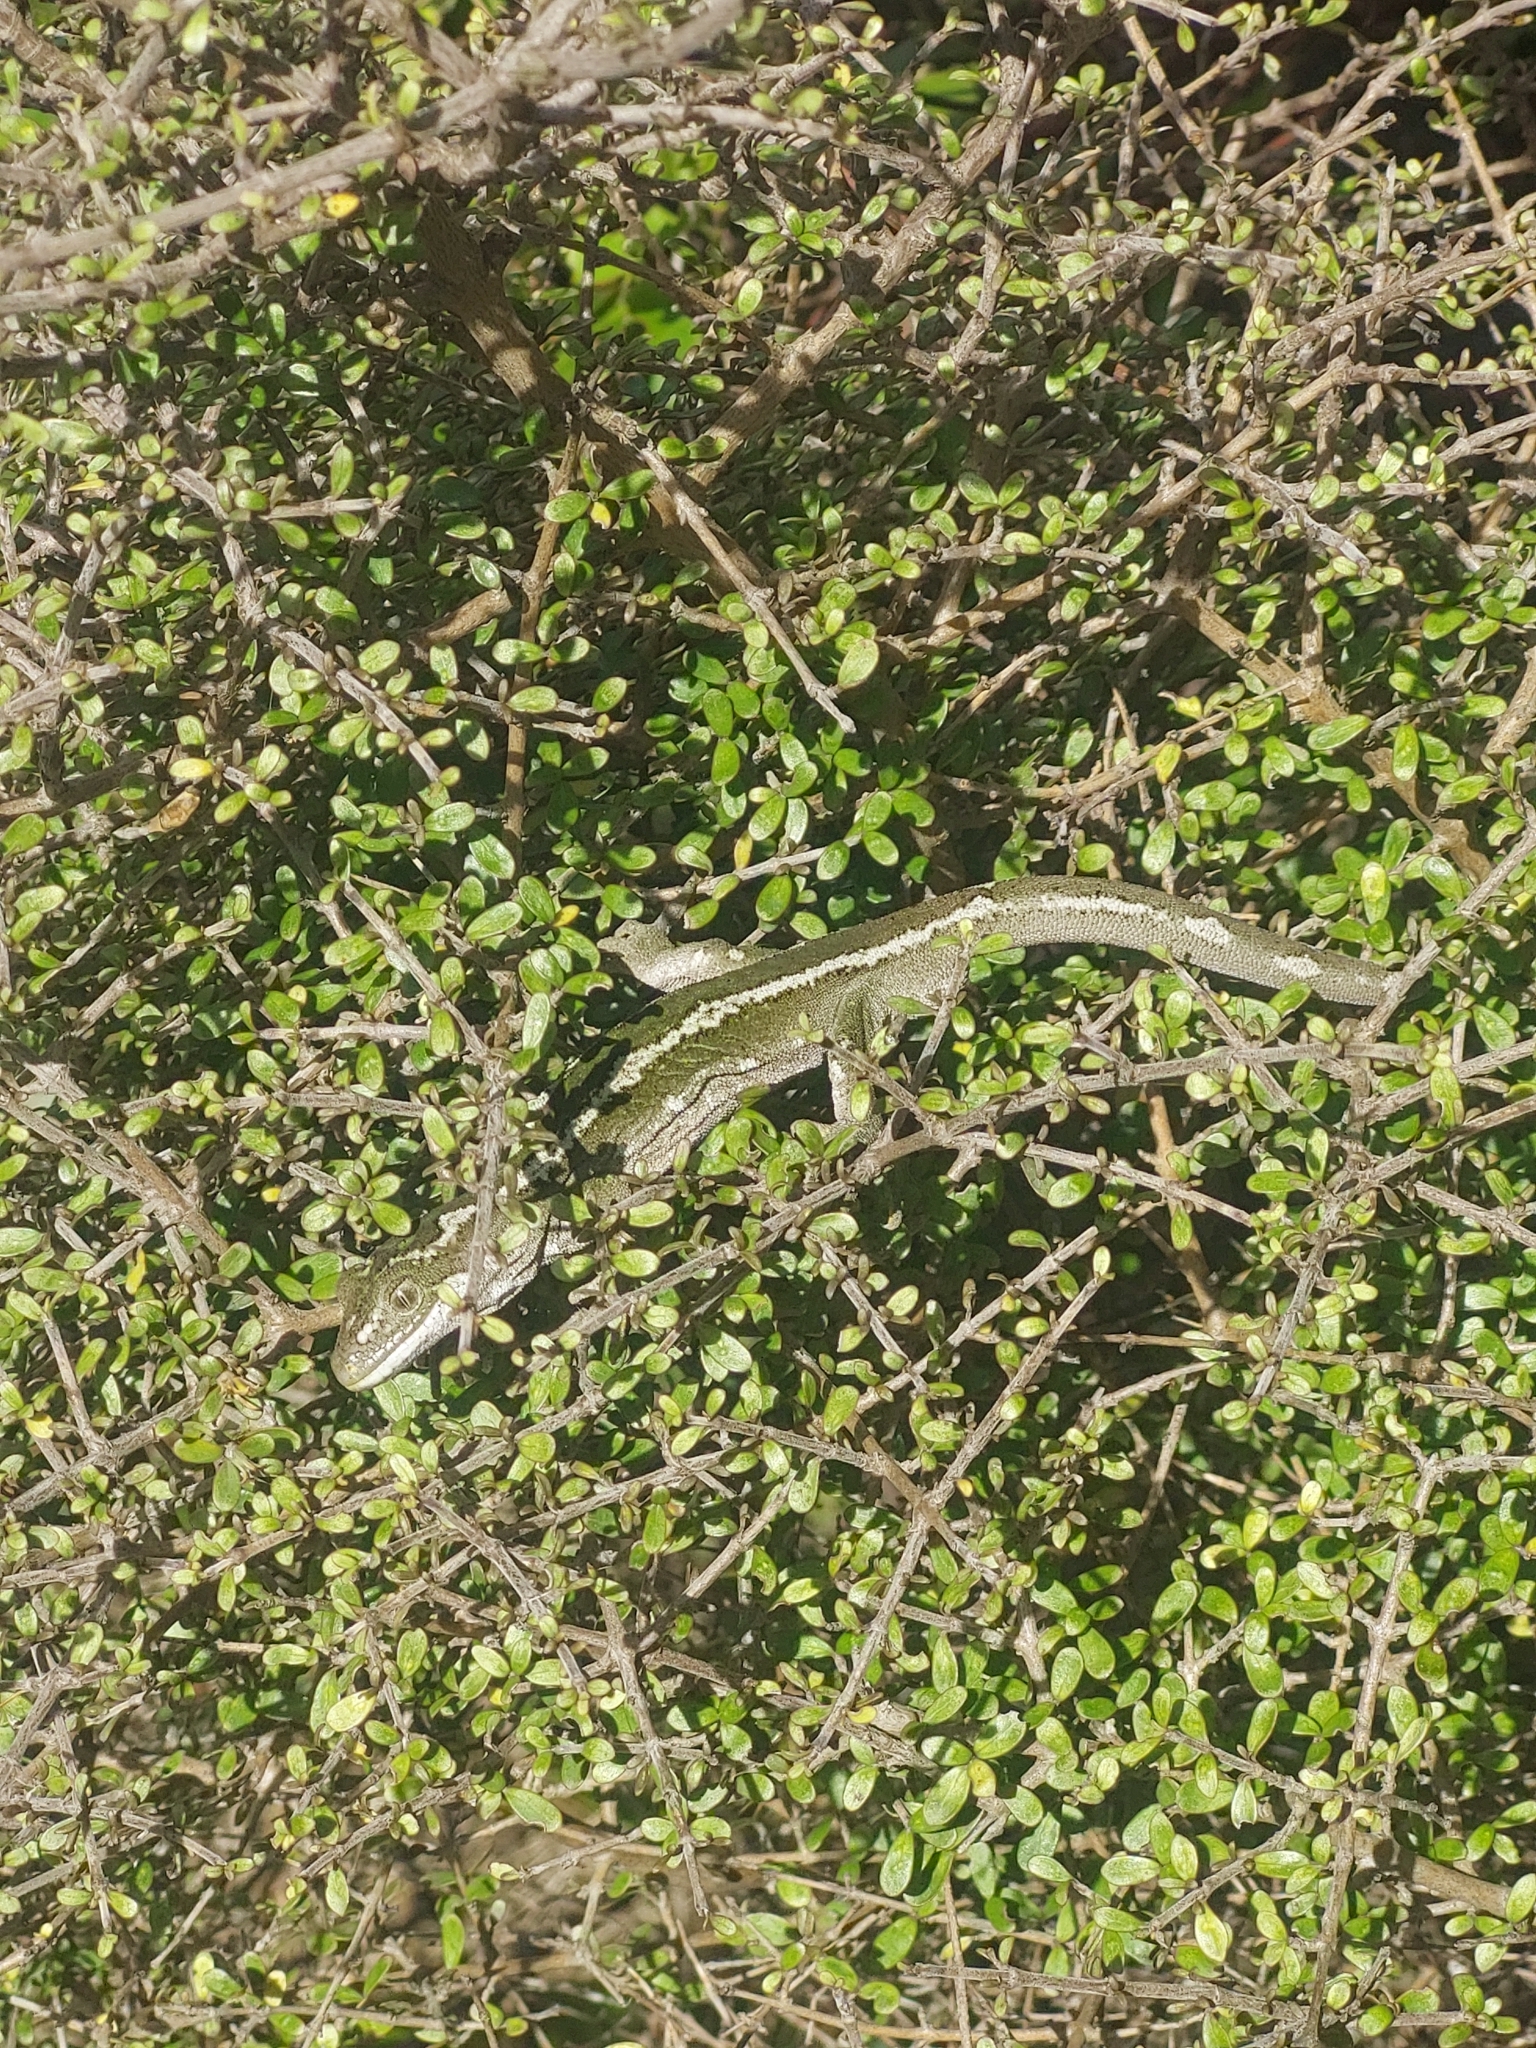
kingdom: Animalia
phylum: Chordata
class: Squamata
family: Diplodactylidae
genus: Naultinus
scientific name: Naultinus gemmeus
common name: Jewelled gecko
